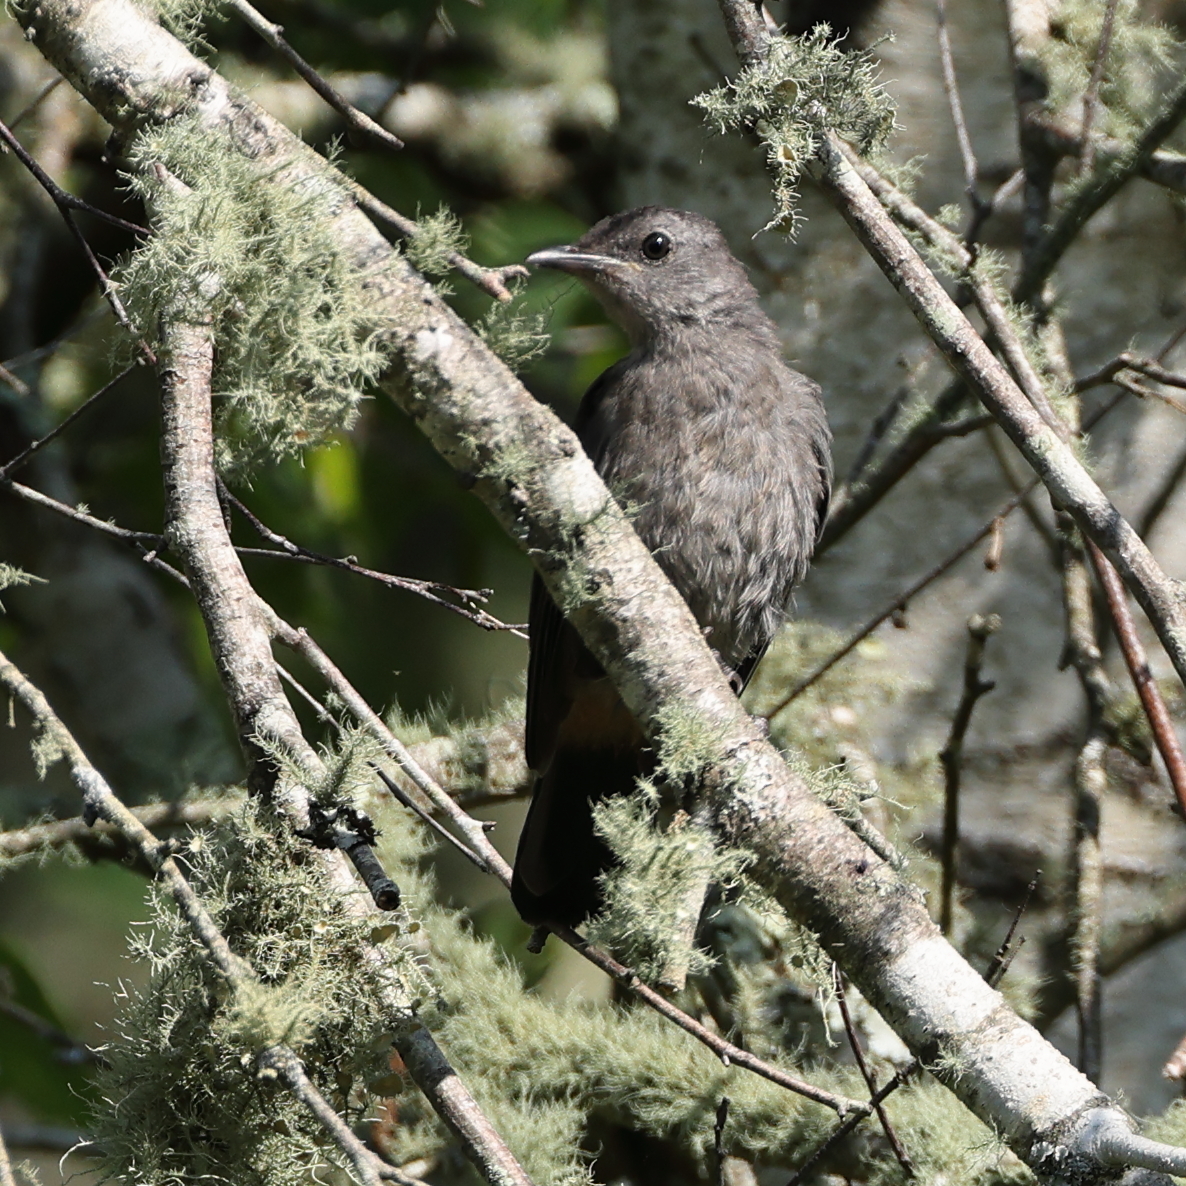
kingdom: Animalia
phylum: Chordata
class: Aves
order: Passeriformes
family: Mimidae
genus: Dumetella
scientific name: Dumetella carolinensis
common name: Gray catbird
